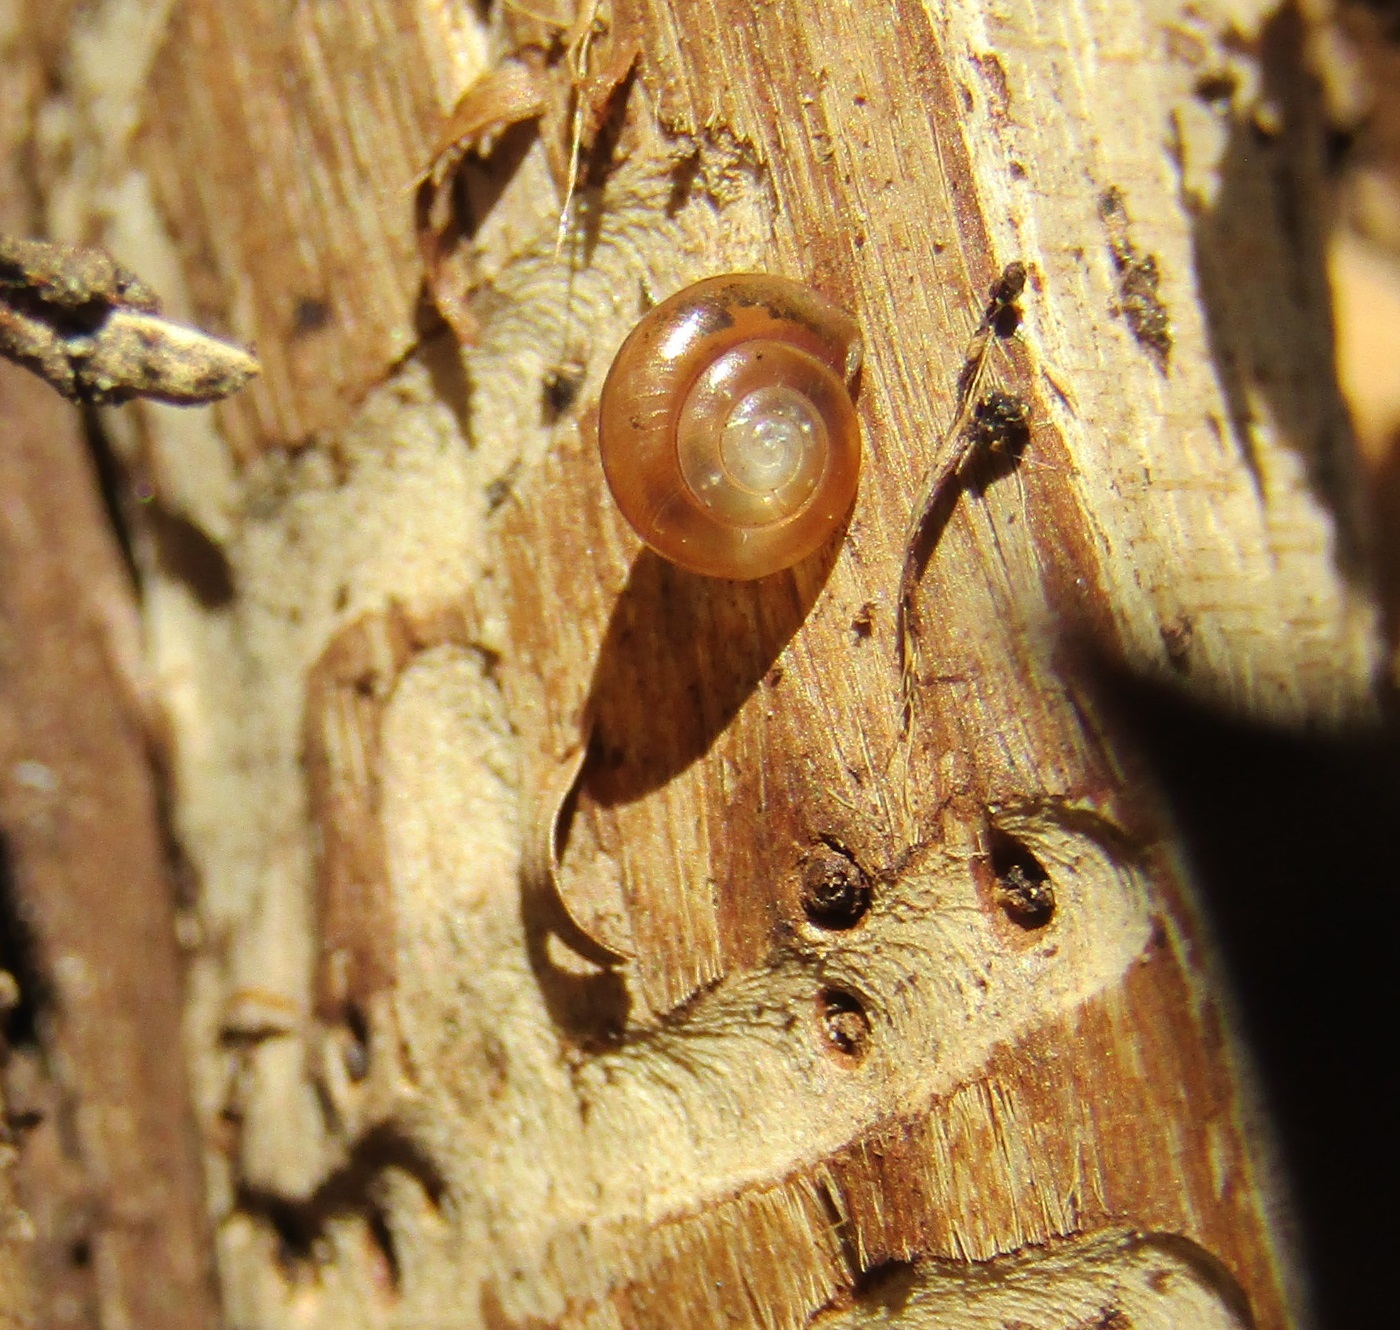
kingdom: Animalia
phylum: Mollusca
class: Gastropoda
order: Stylommatophora
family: Oxychilidae
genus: Oxychilus
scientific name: Oxychilus
